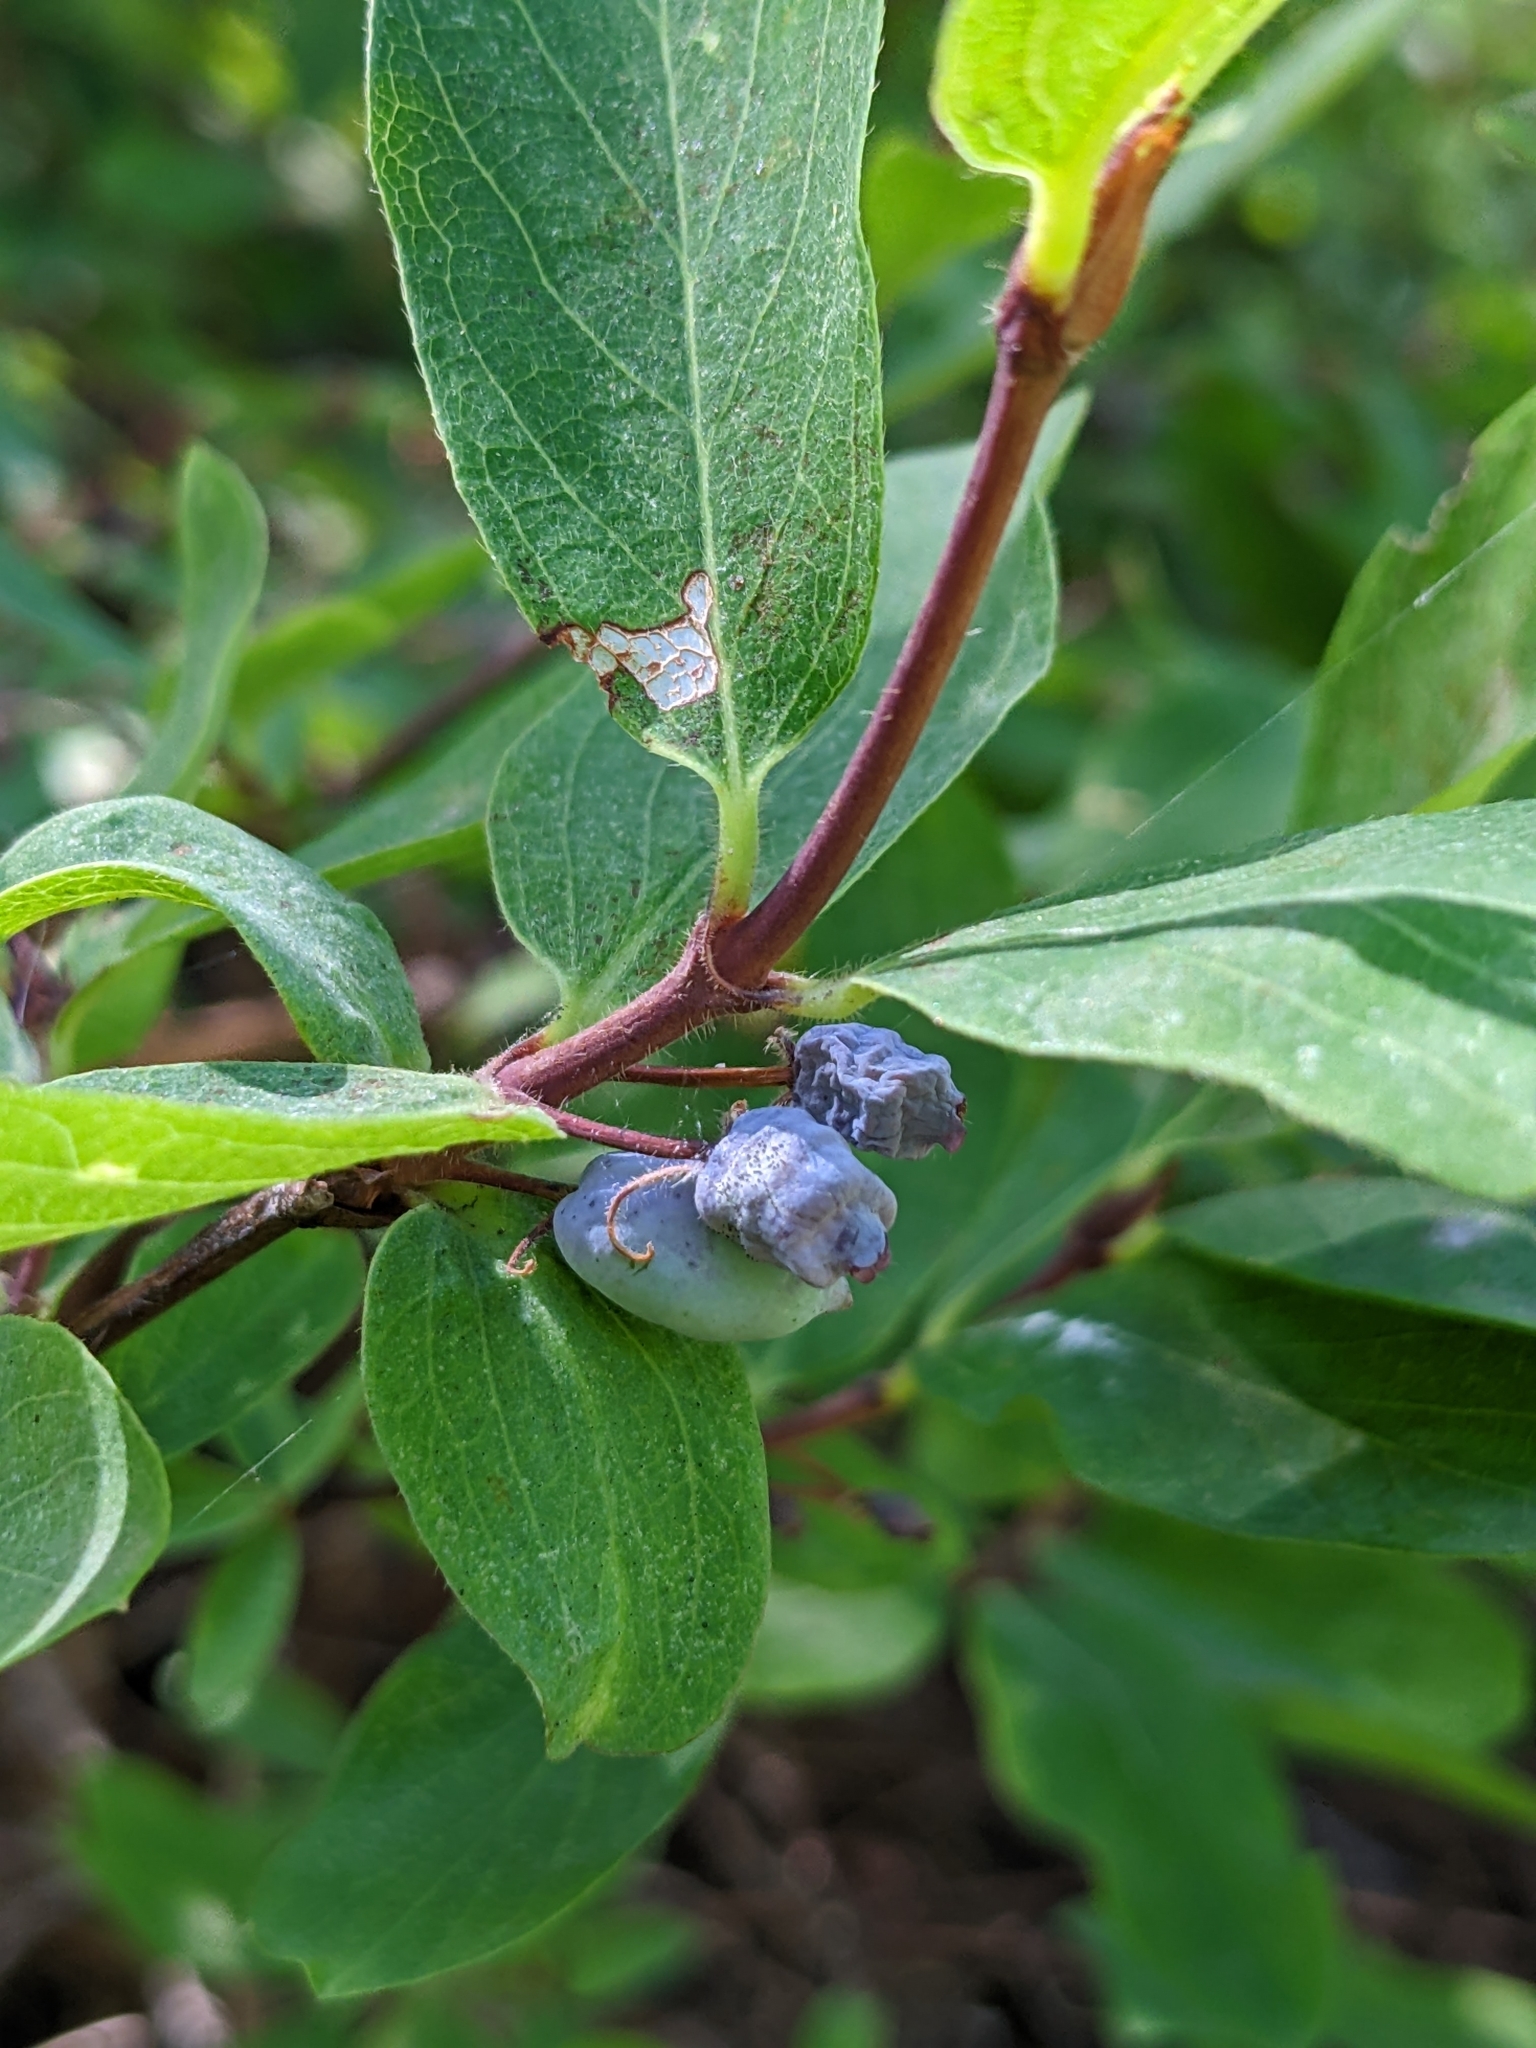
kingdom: Plantae
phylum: Tracheophyta
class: Magnoliopsida
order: Dipsacales
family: Caprifoliaceae
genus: Lonicera
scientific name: Lonicera caerulea
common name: Blue honeysuckle
